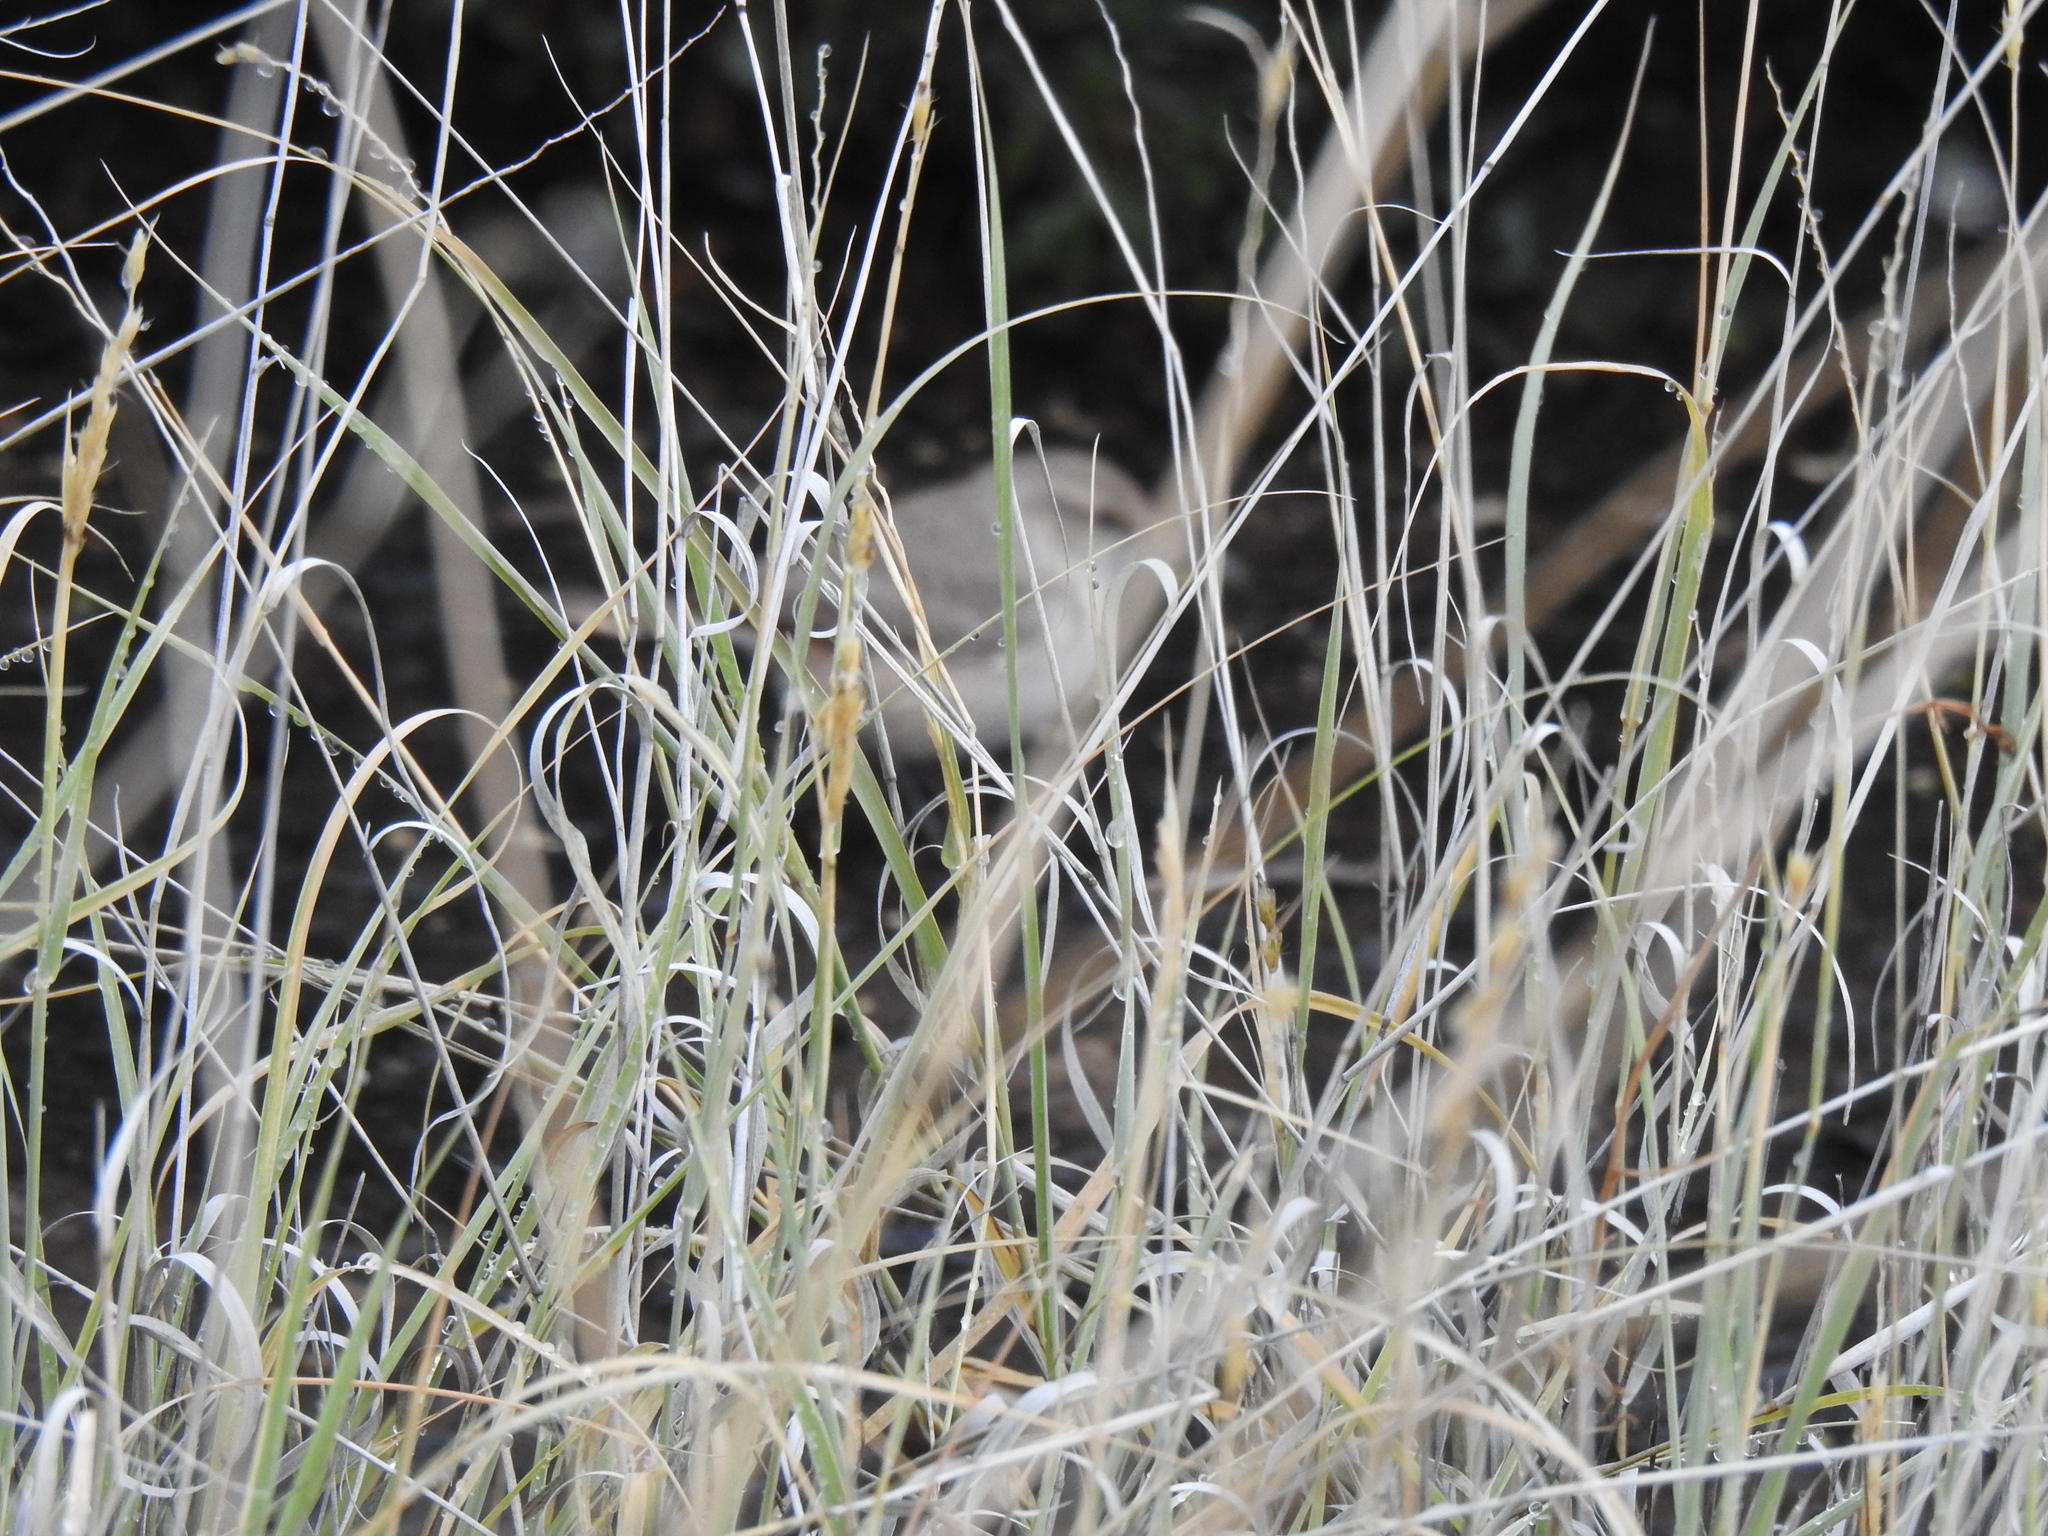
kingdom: Animalia
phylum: Chordata
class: Aves
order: Passeriformes
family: Troglodytidae
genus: Salpinctes
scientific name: Salpinctes obsoletus
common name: Rock wren
